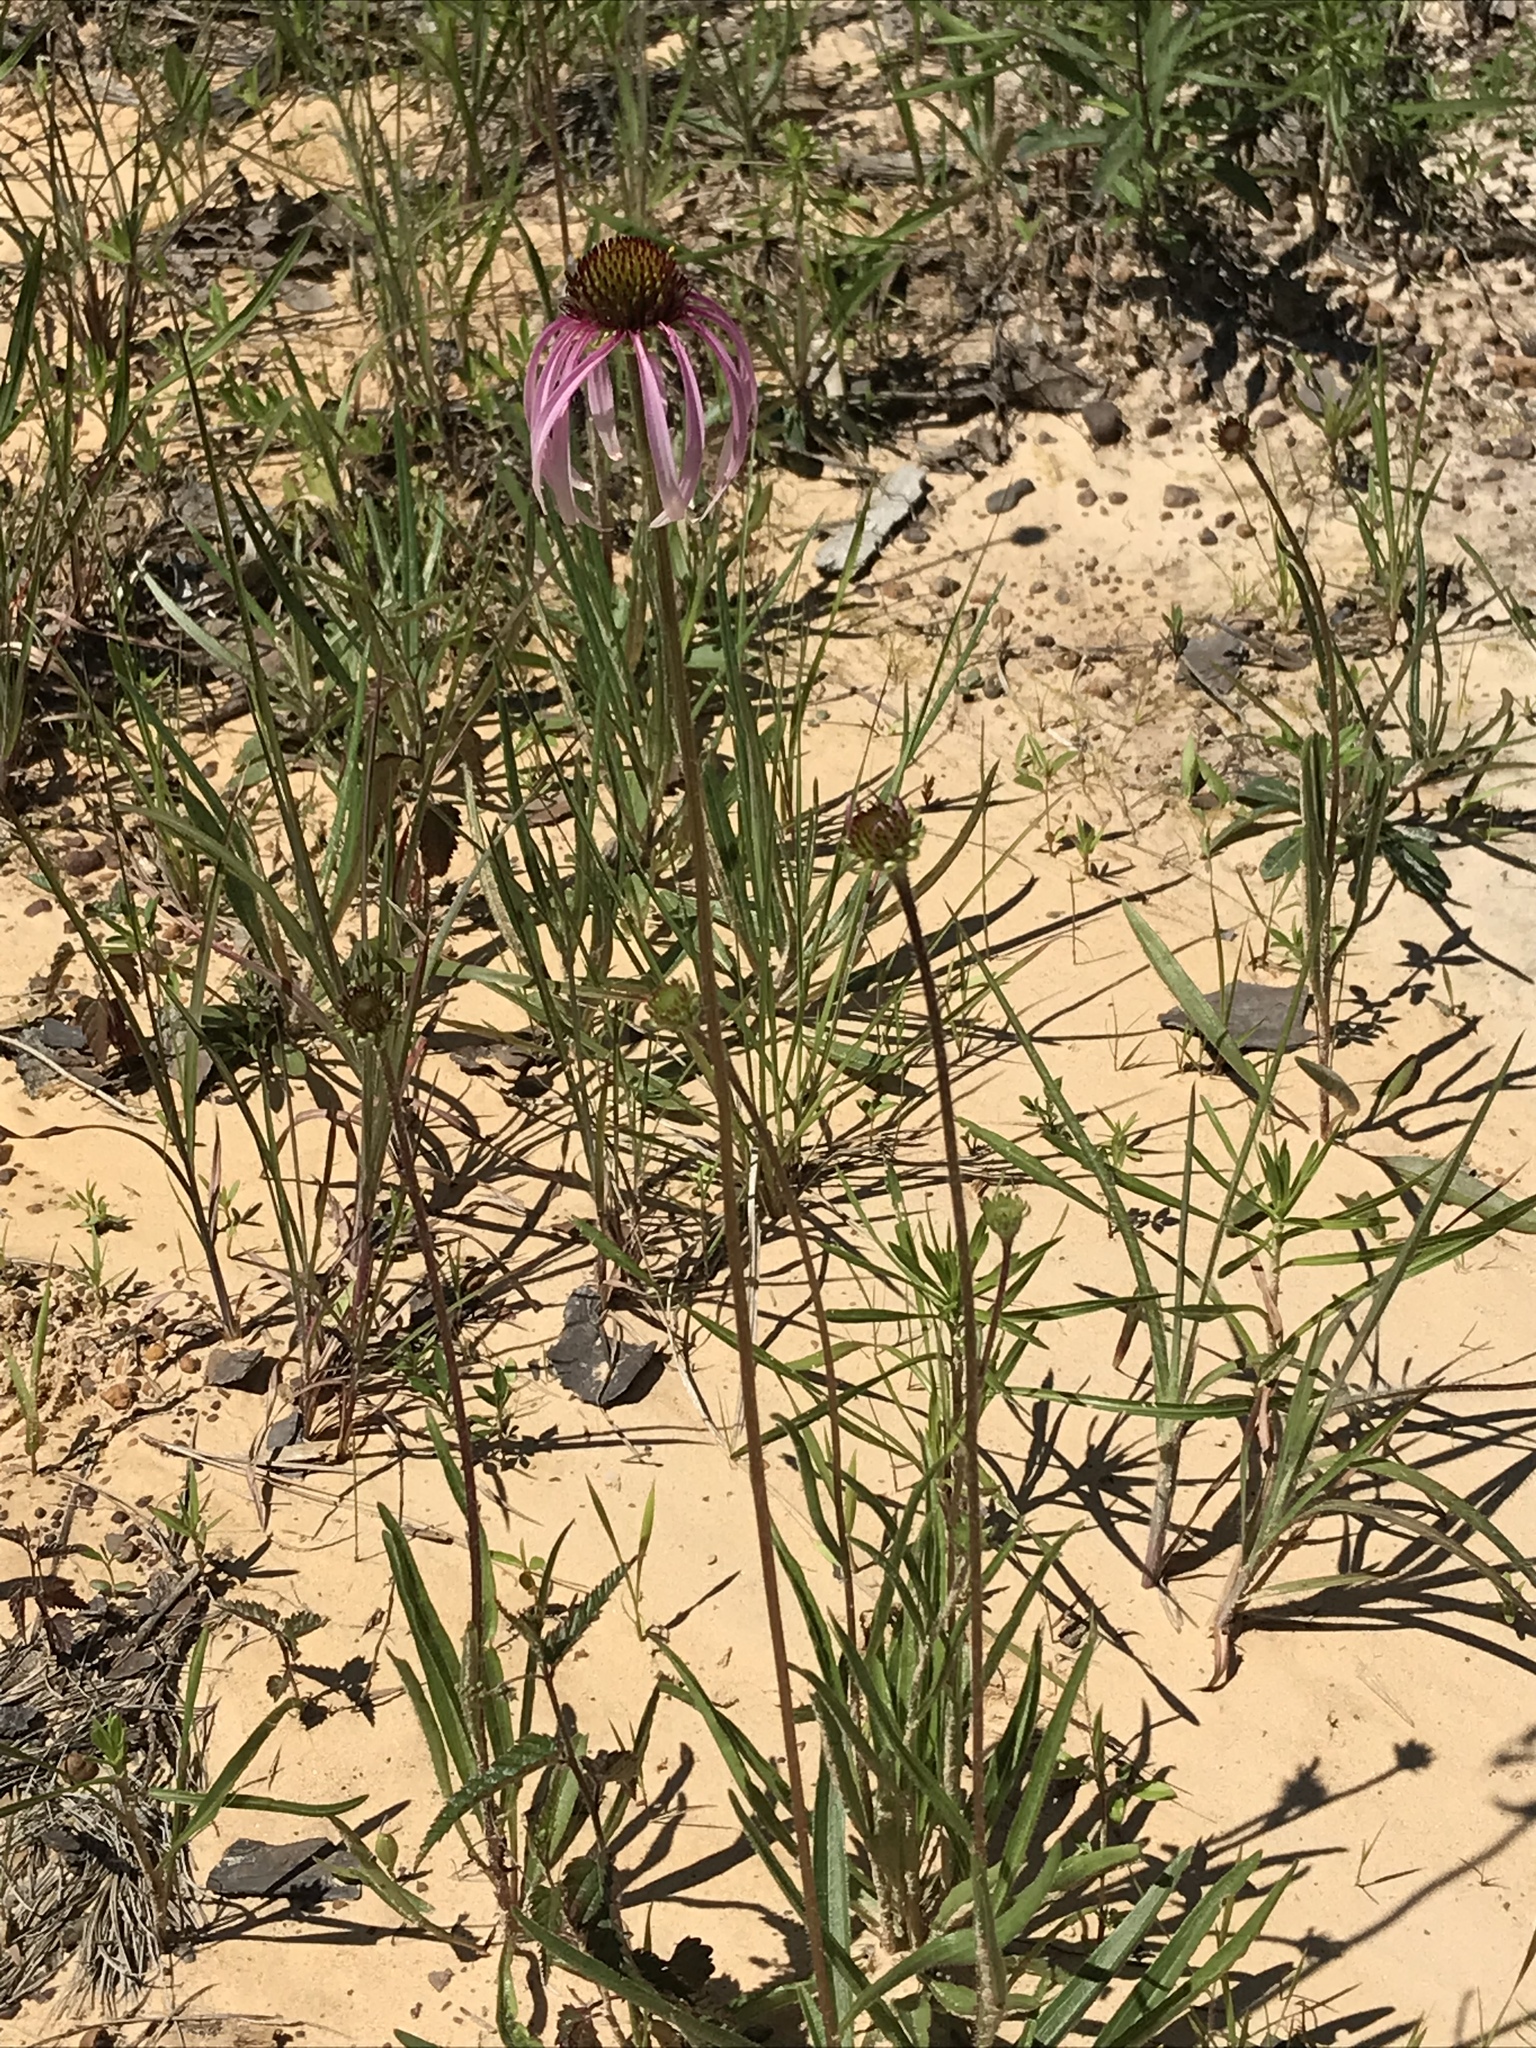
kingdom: Plantae
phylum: Tracheophyta
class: Magnoliopsida
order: Asterales
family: Asteraceae
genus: Echinacea
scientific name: Echinacea sanguinea
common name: Sanguine purple-coneflower
